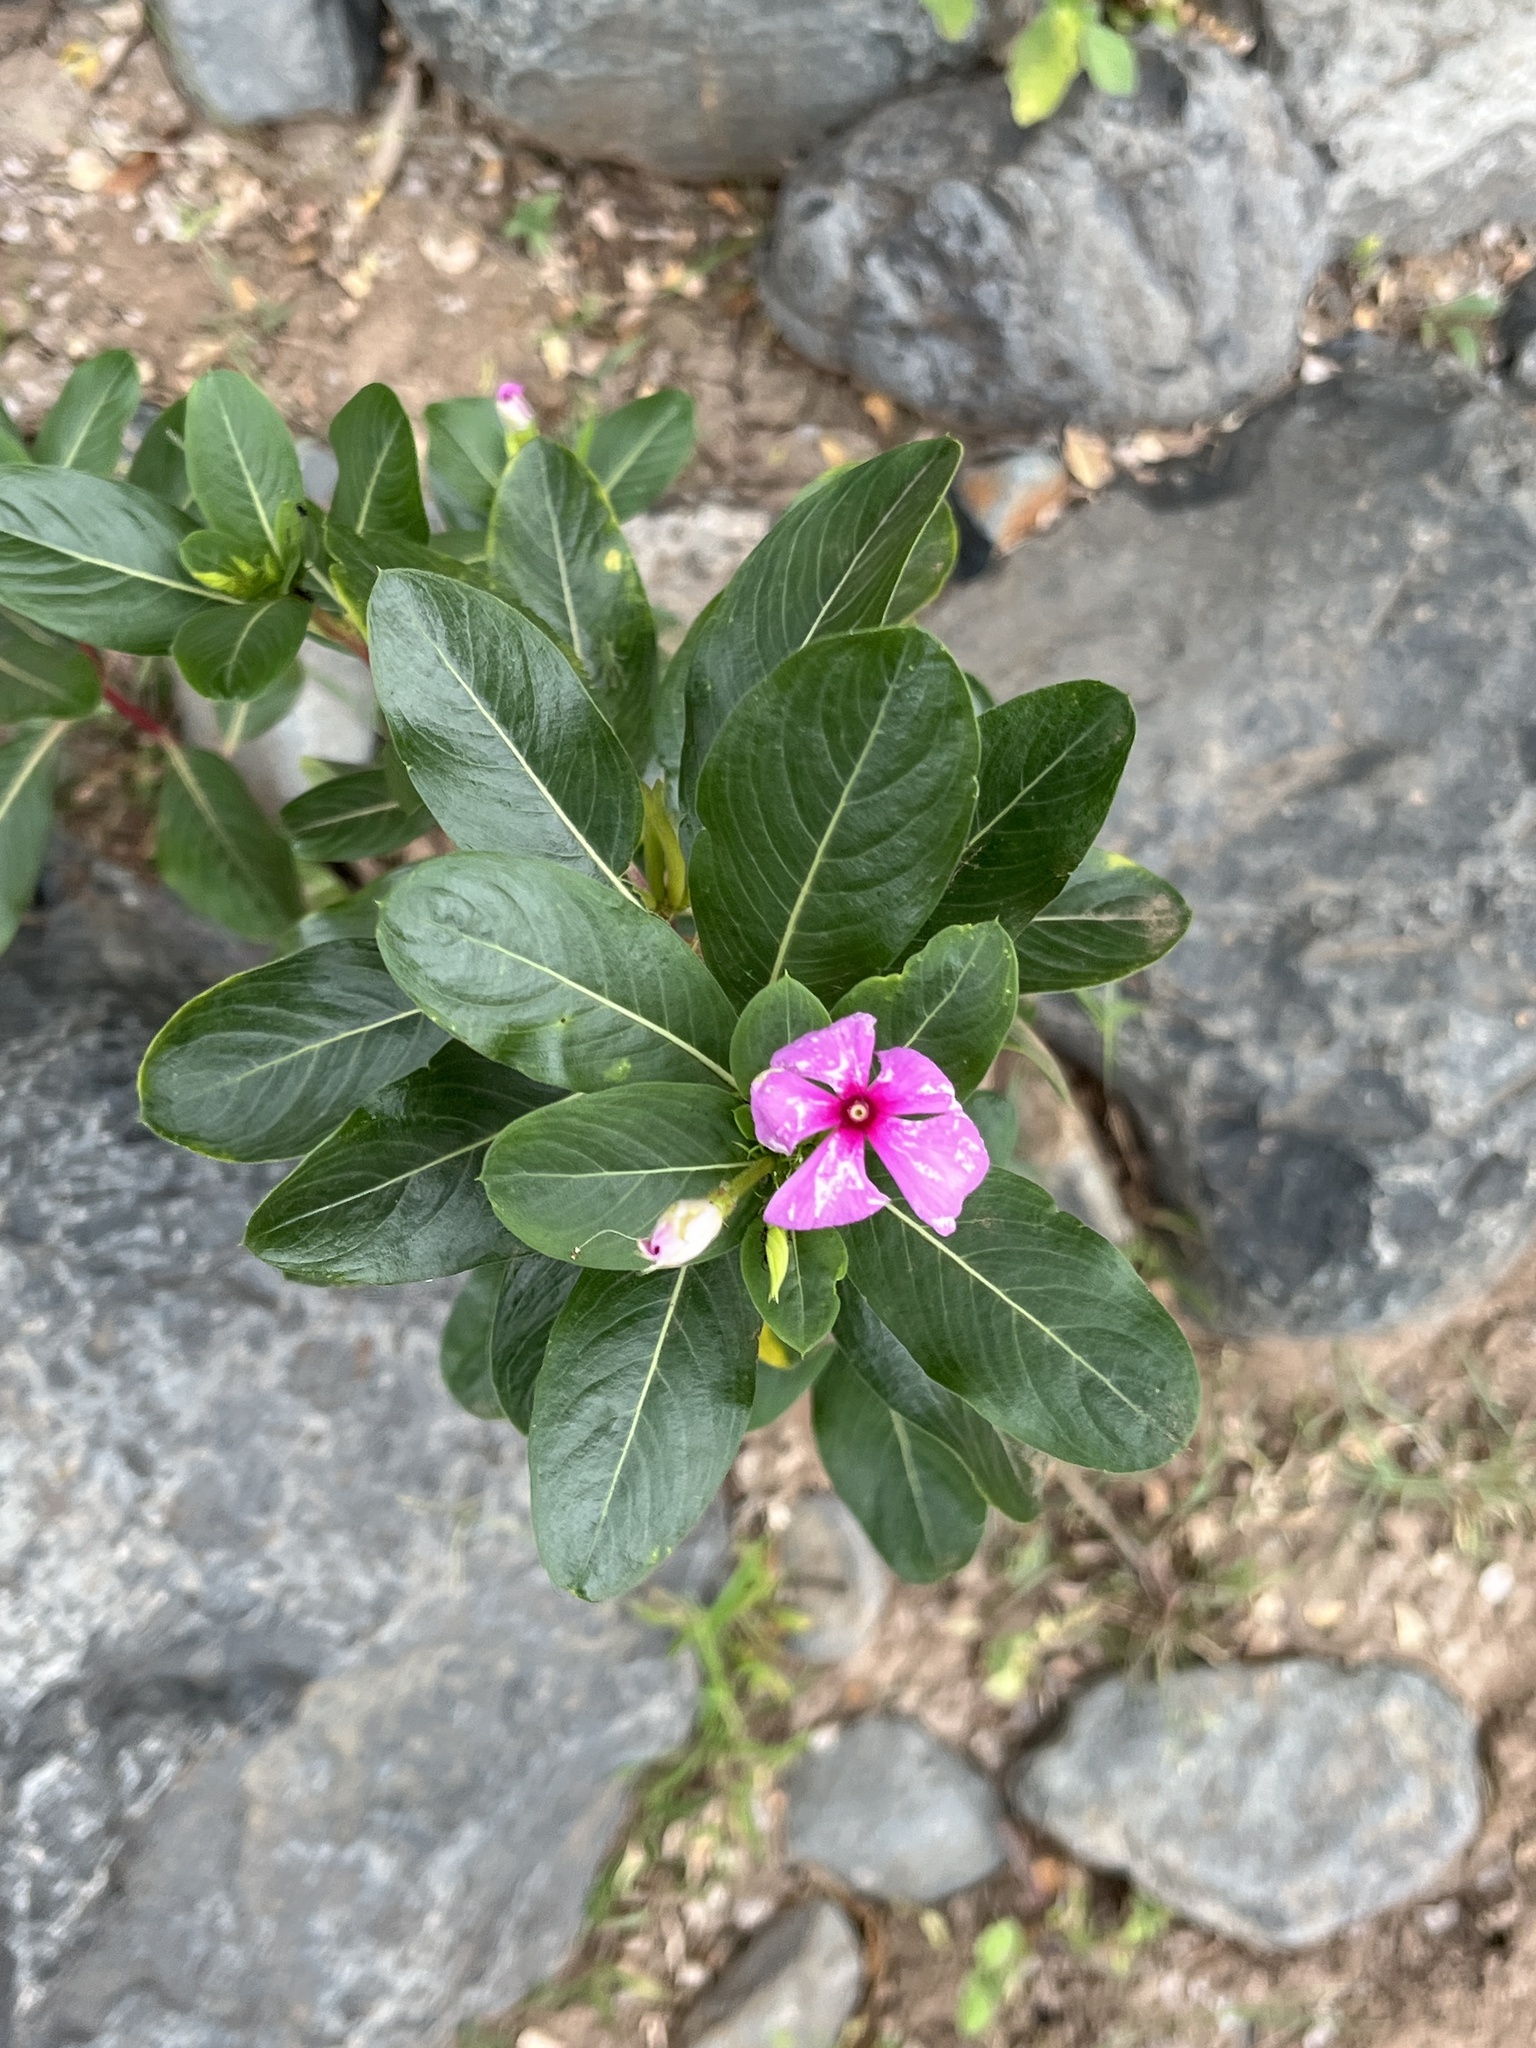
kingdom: Plantae
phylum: Tracheophyta
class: Magnoliopsida
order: Gentianales
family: Apocynaceae
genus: Catharanthus
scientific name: Catharanthus roseus
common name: Madagascar periwinkle
